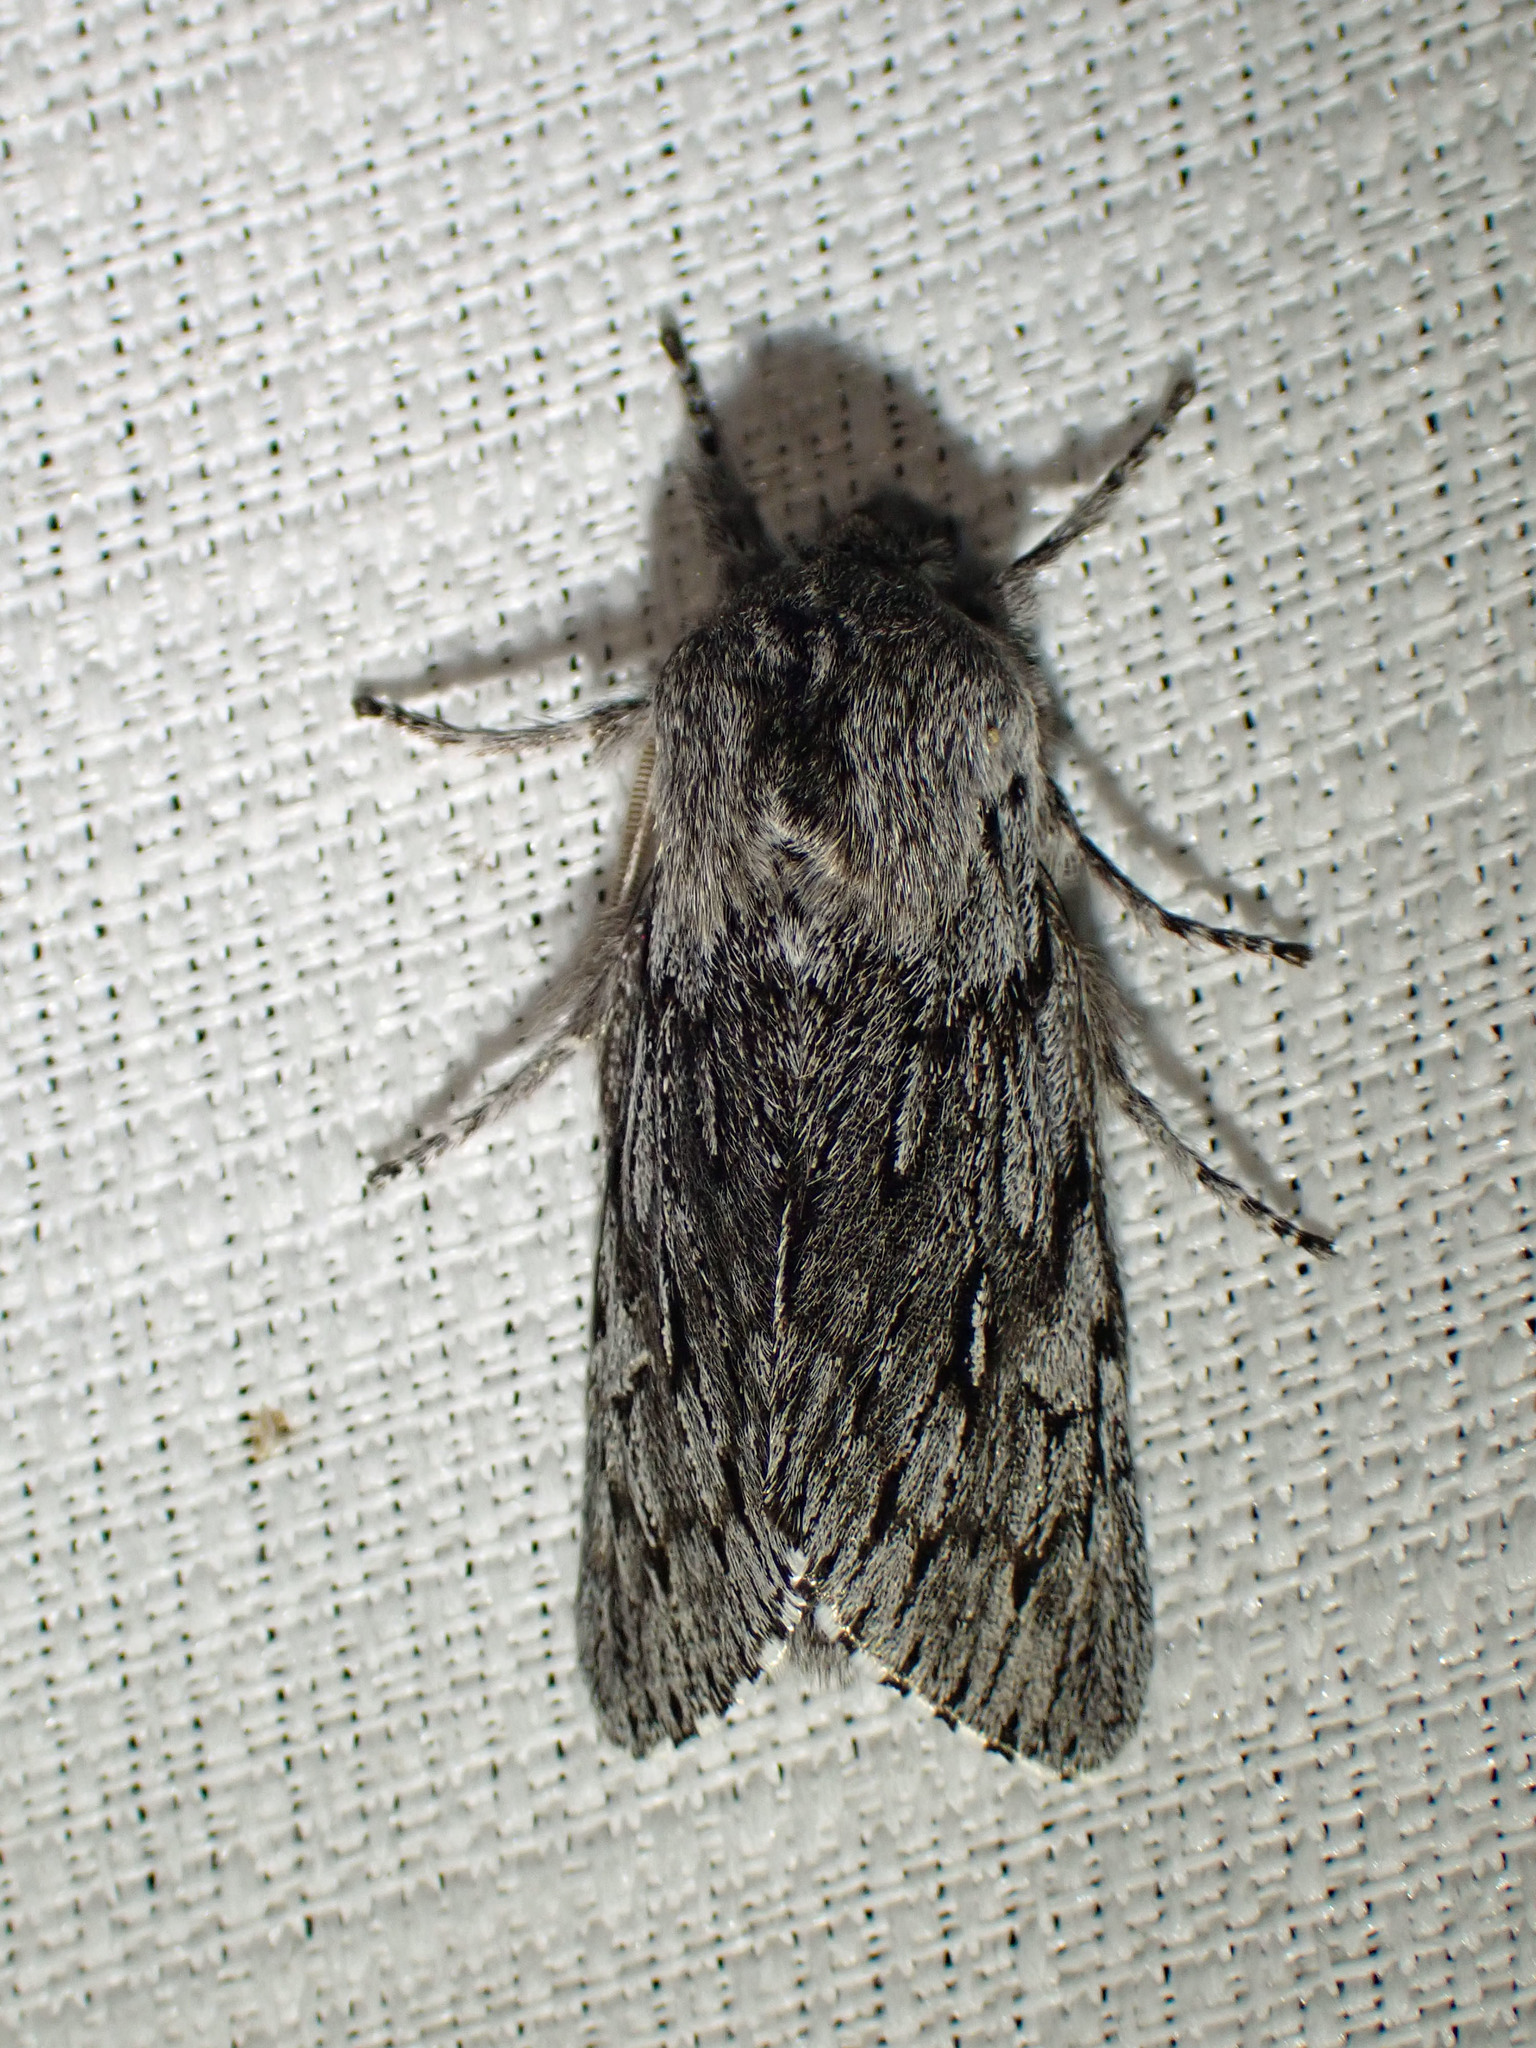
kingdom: Animalia
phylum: Arthropoda
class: Insecta
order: Lepidoptera
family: Noctuidae
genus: Brachionycha
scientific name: Brachionycha borealis
